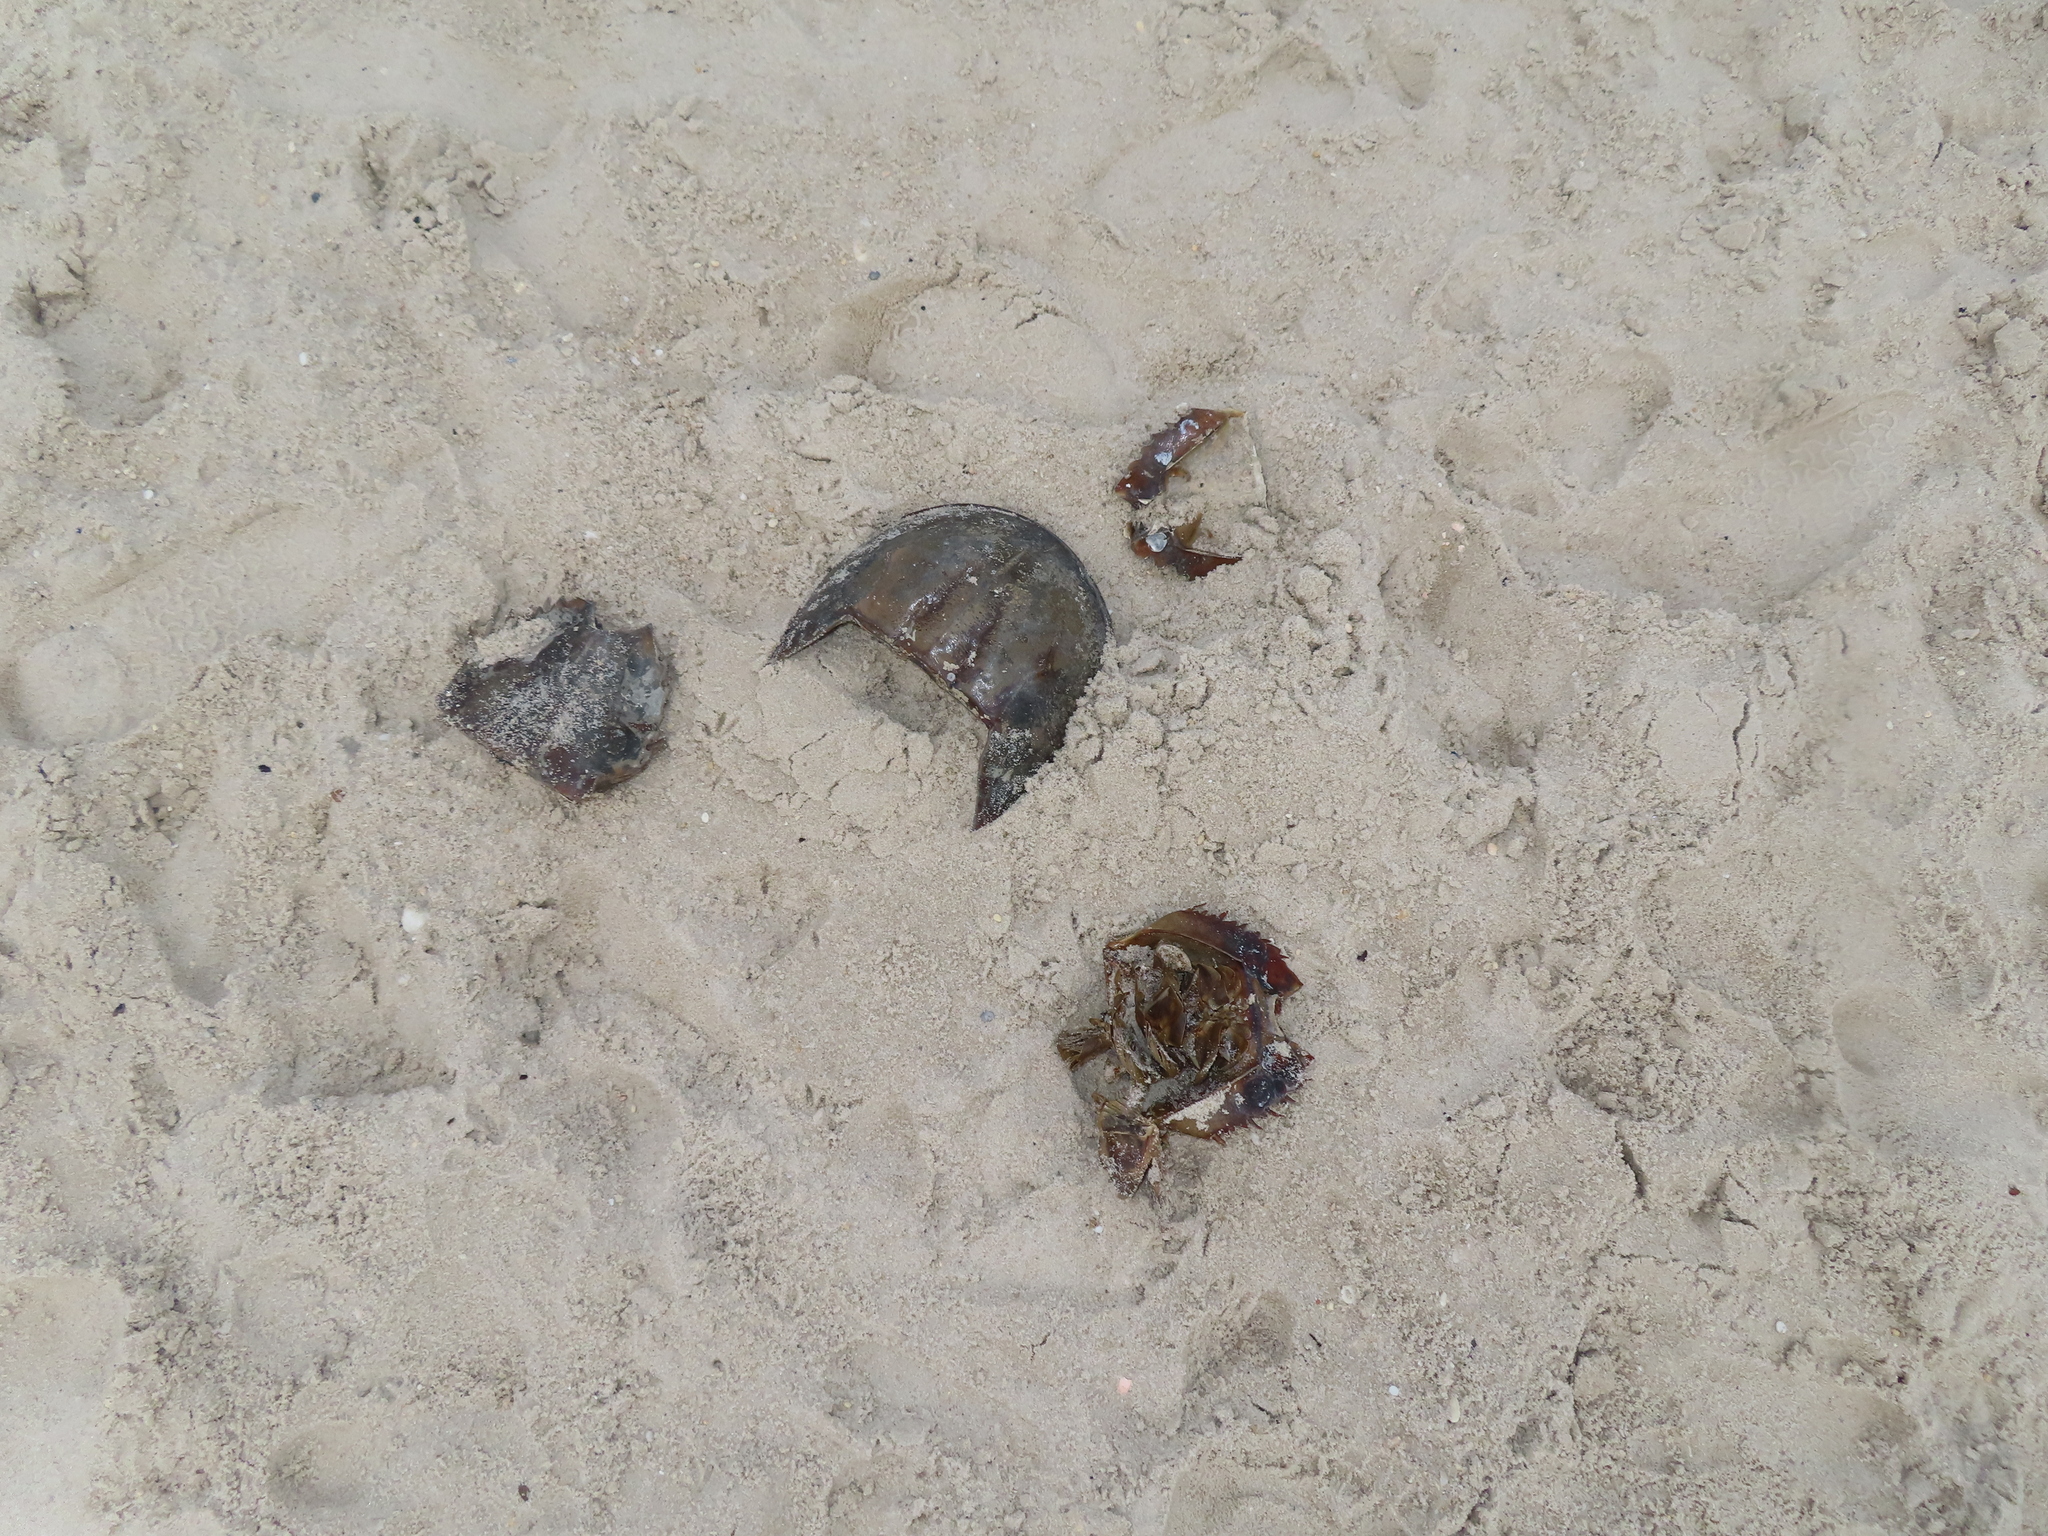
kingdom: Animalia
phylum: Arthropoda
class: Merostomata
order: Xiphosurida
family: Limulidae
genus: Limulus
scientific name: Limulus polyphemus
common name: Horseshoe crab
